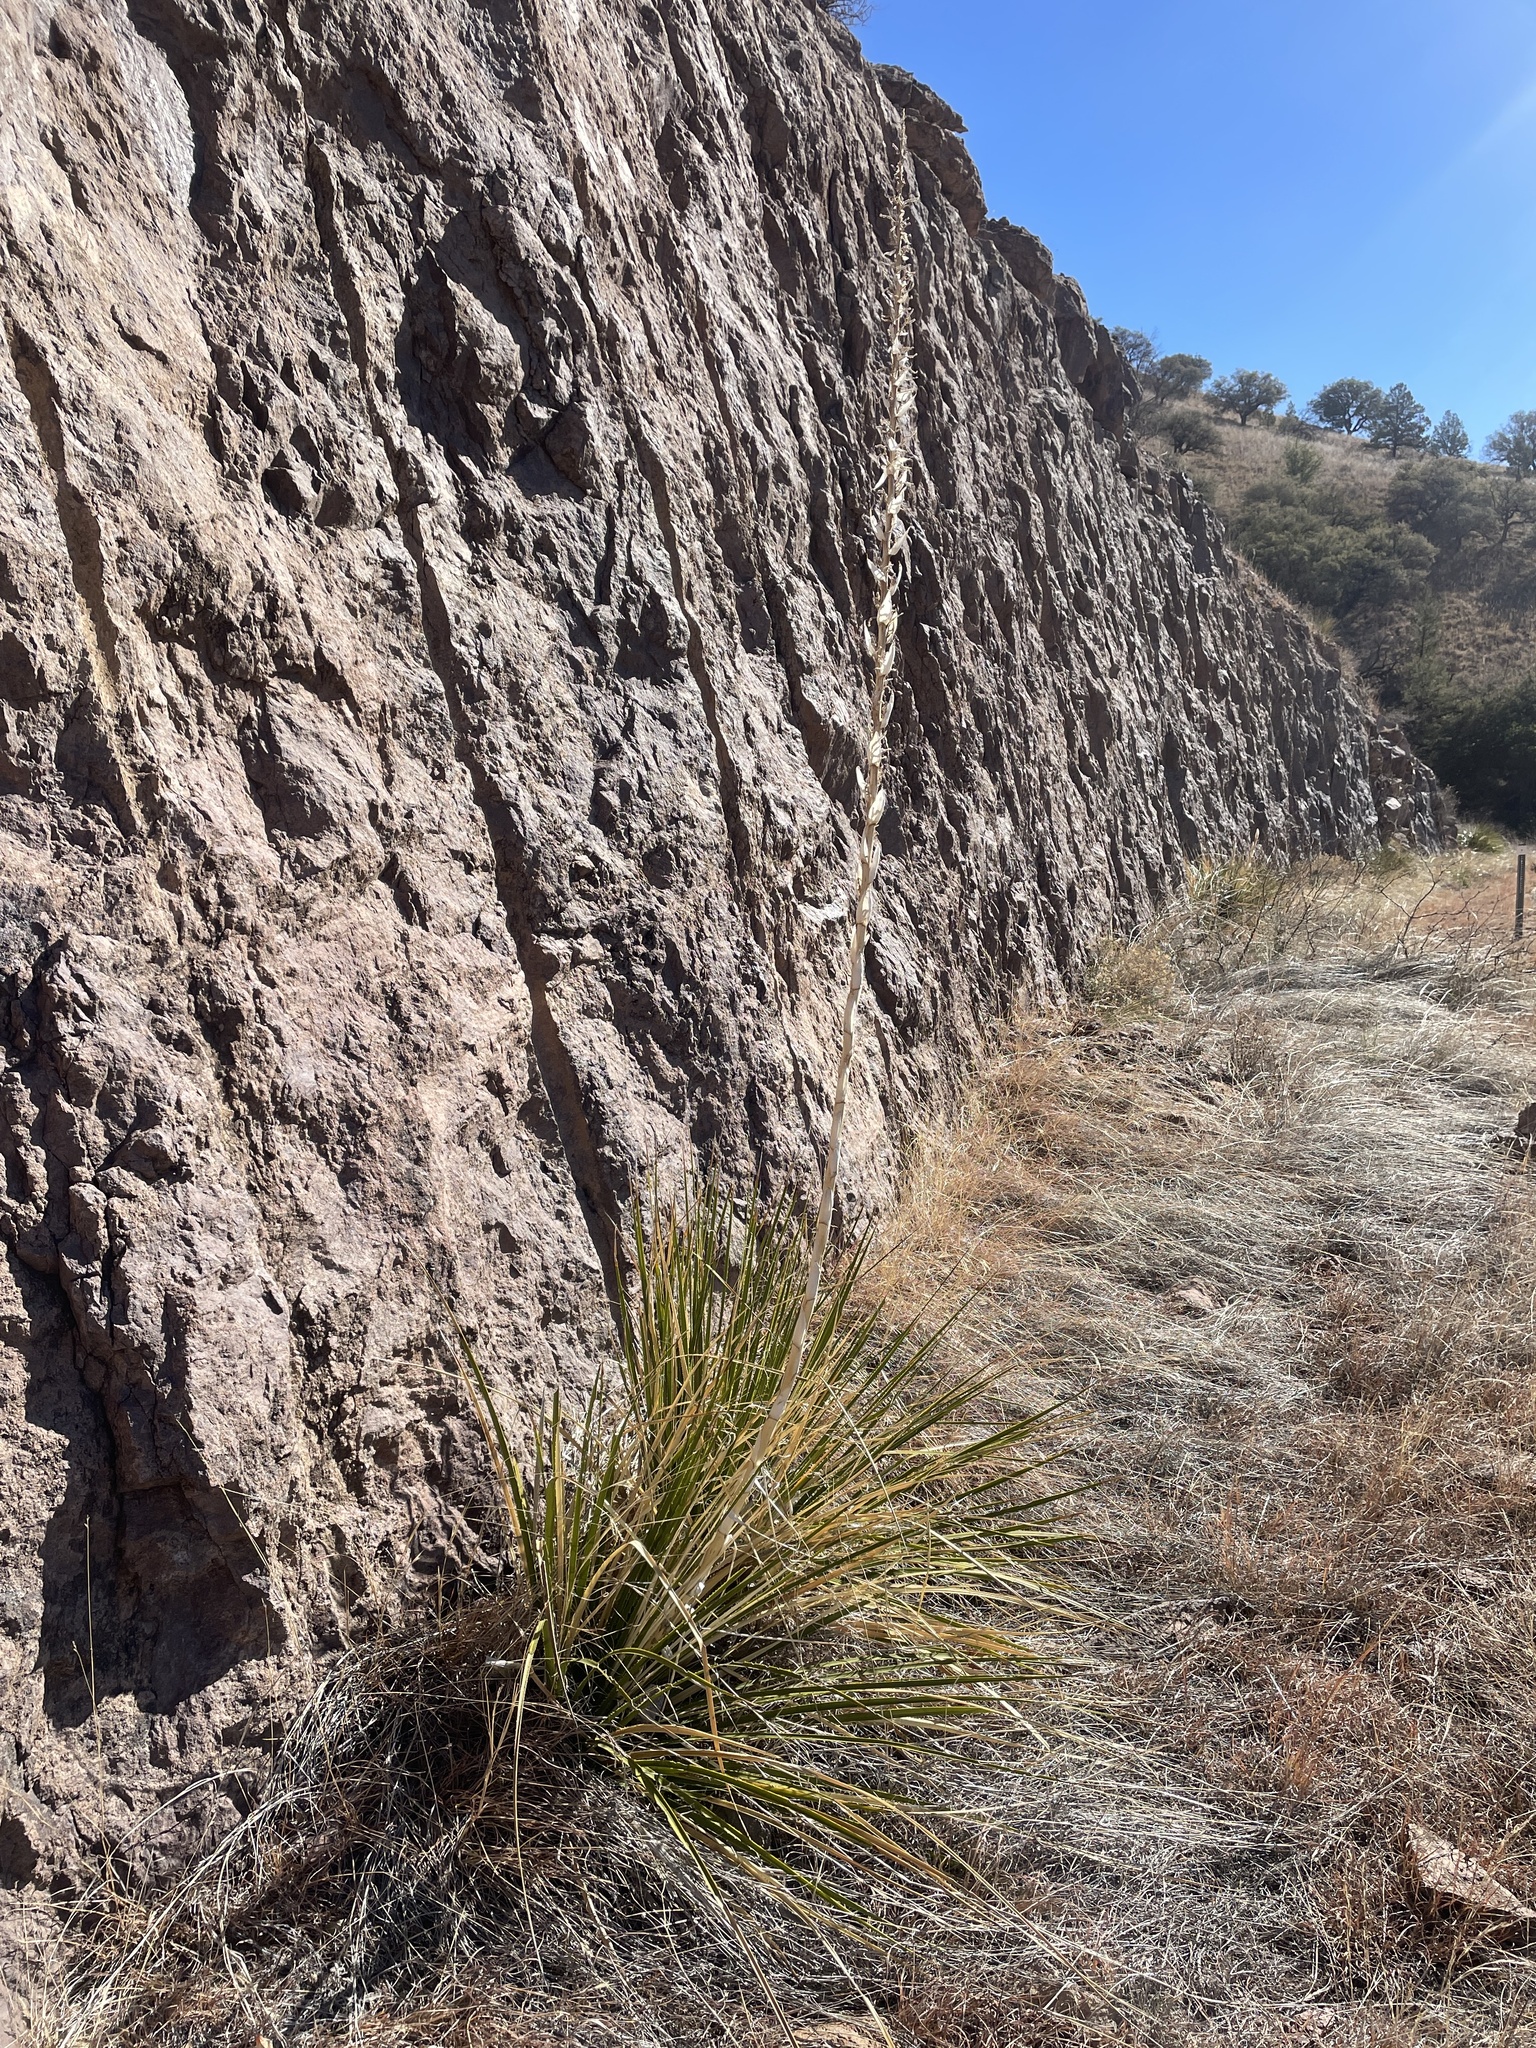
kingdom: Plantae
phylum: Tracheophyta
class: Liliopsida
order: Asparagales
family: Asparagaceae
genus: Dasylirion
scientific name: Dasylirion leiophyllum
